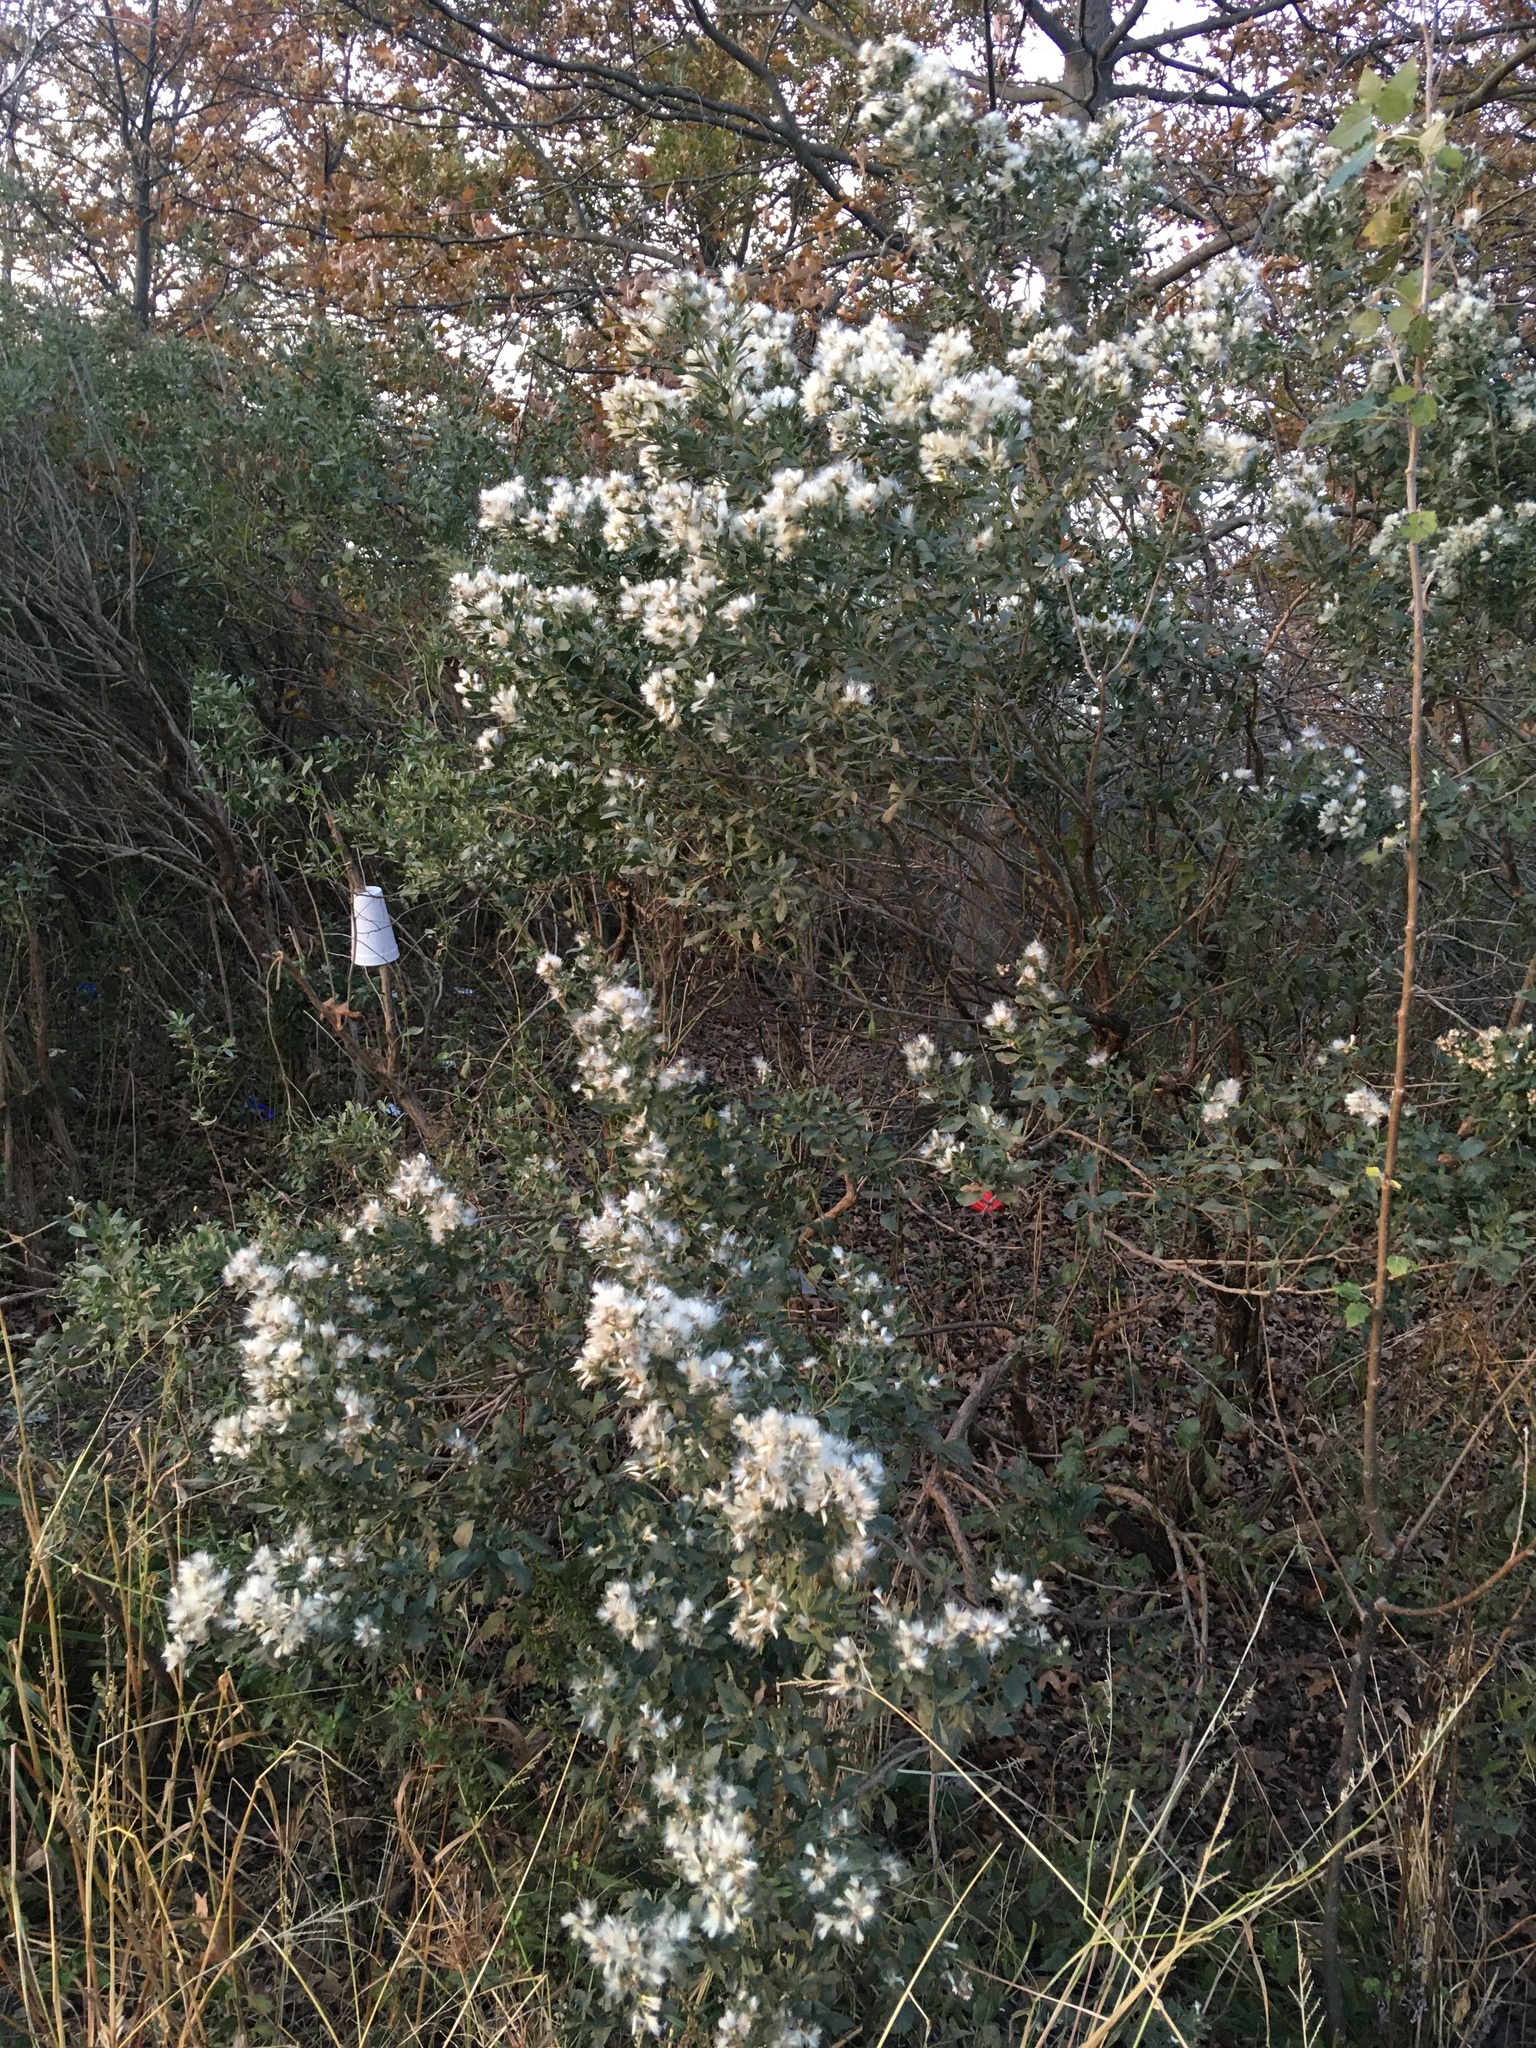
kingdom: Plantae
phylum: Tracheophyta
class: Magnoliopsida
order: Asterales
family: Asteraceae
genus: Baccharis
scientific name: Baccharis halimifolia
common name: Eastern baccharis
